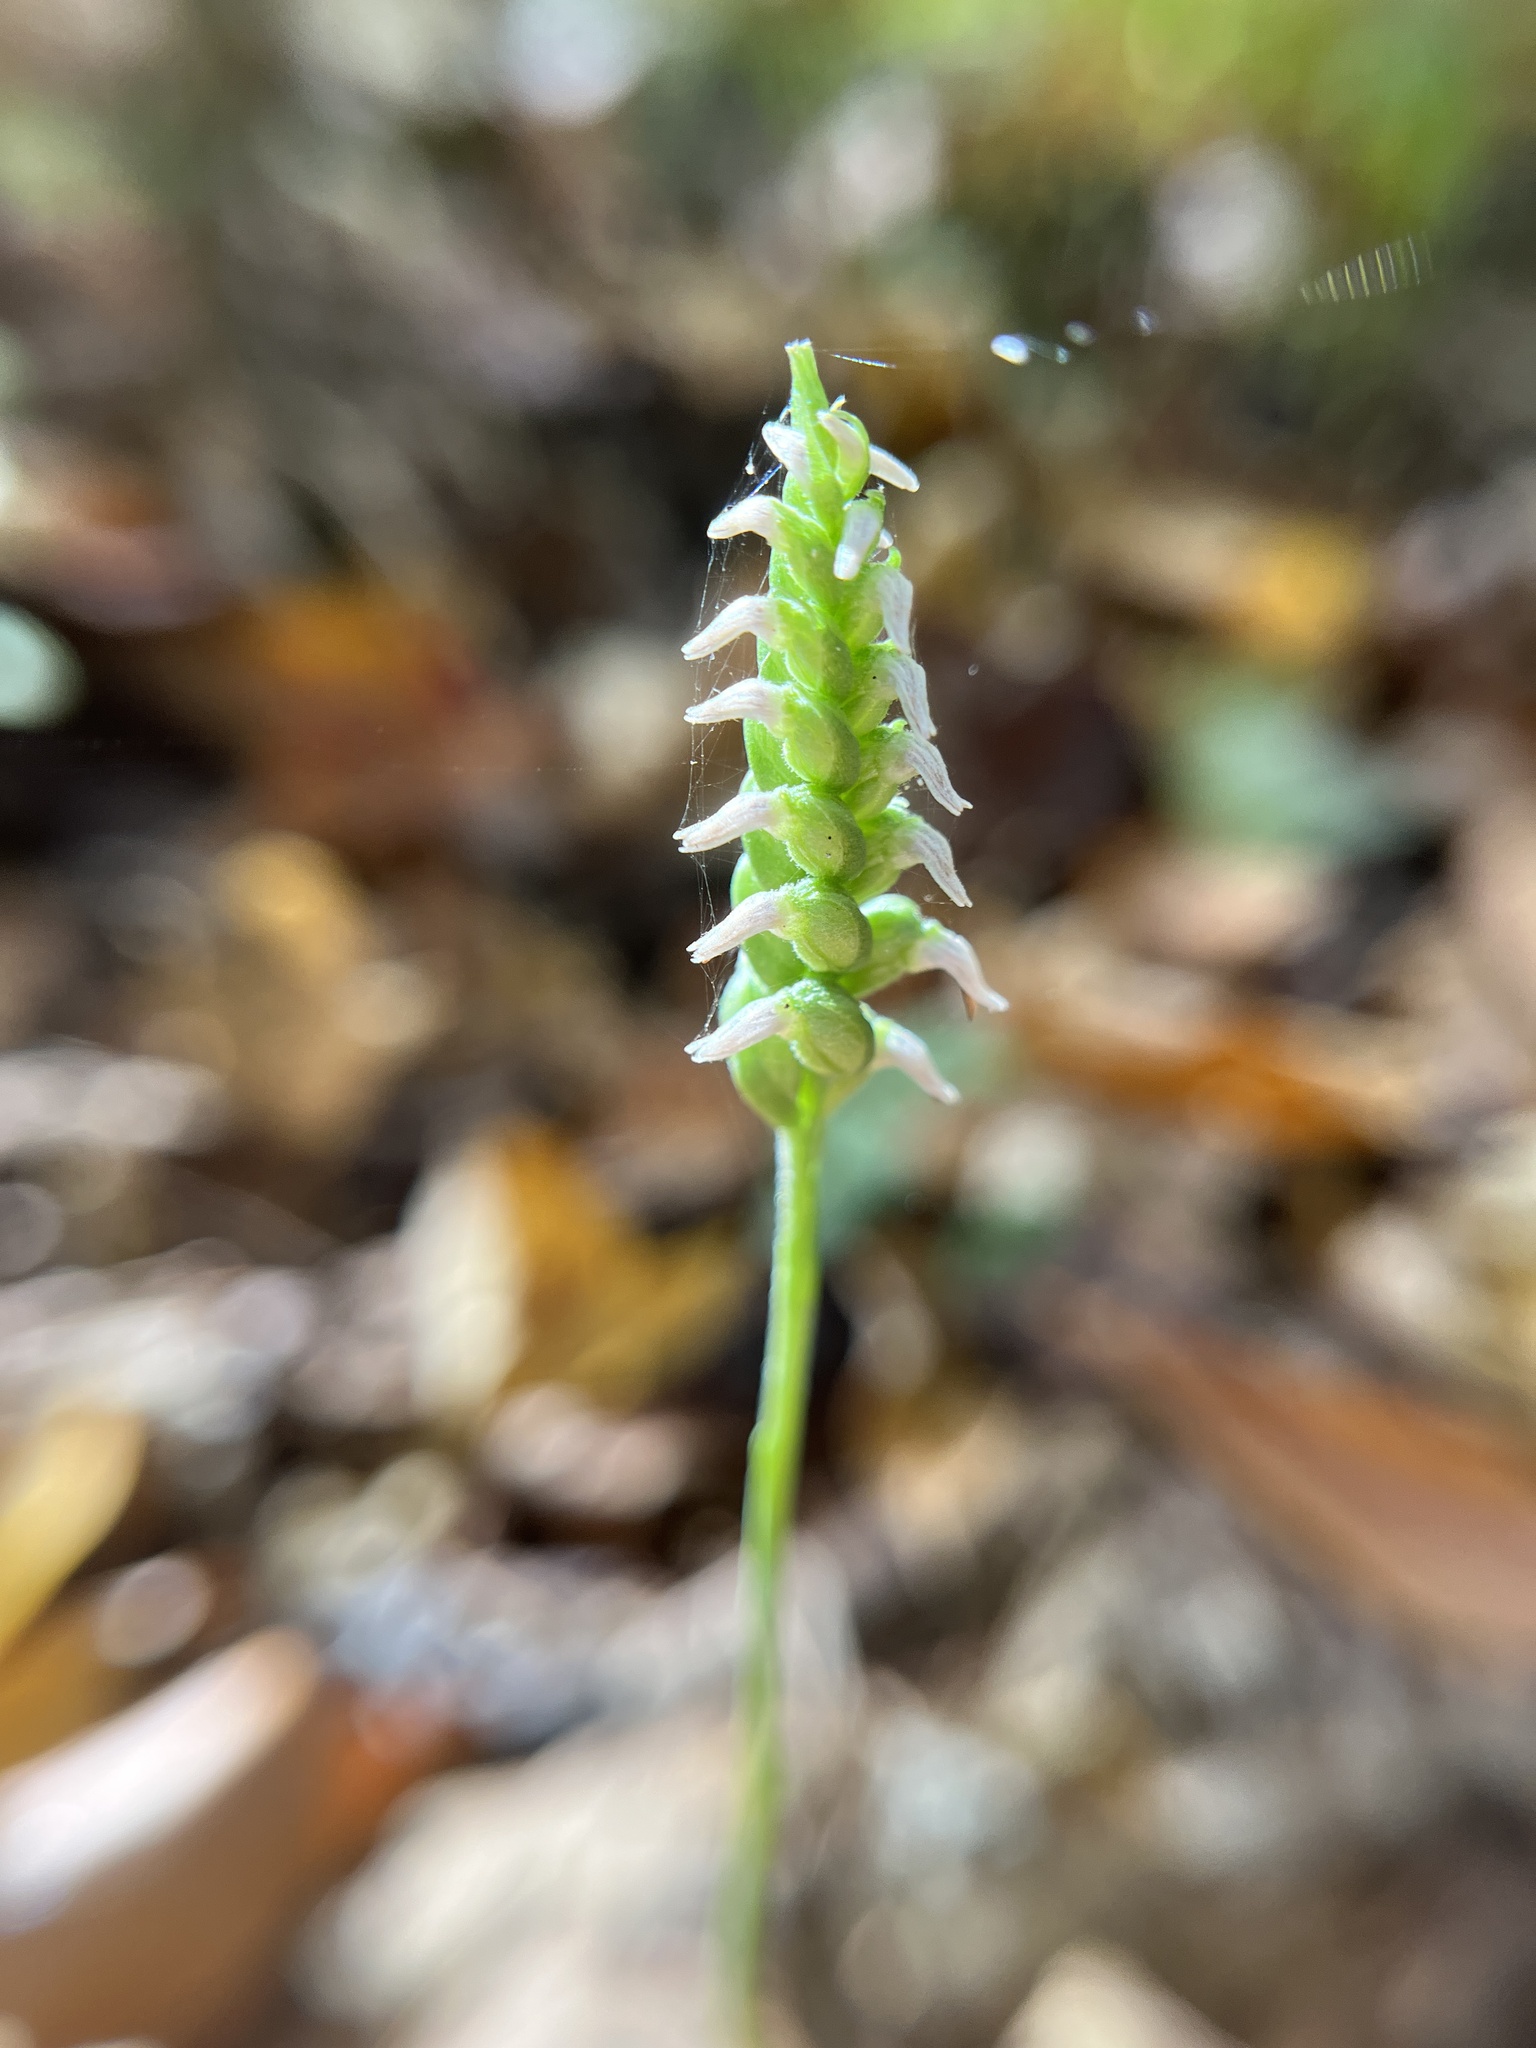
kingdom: Plantae
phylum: Tracheophyta
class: Liliopsida
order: Asparagales
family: Orchidaceae
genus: Spiranthes
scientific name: Spiranthes ovalis
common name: October ladies'-tresses
